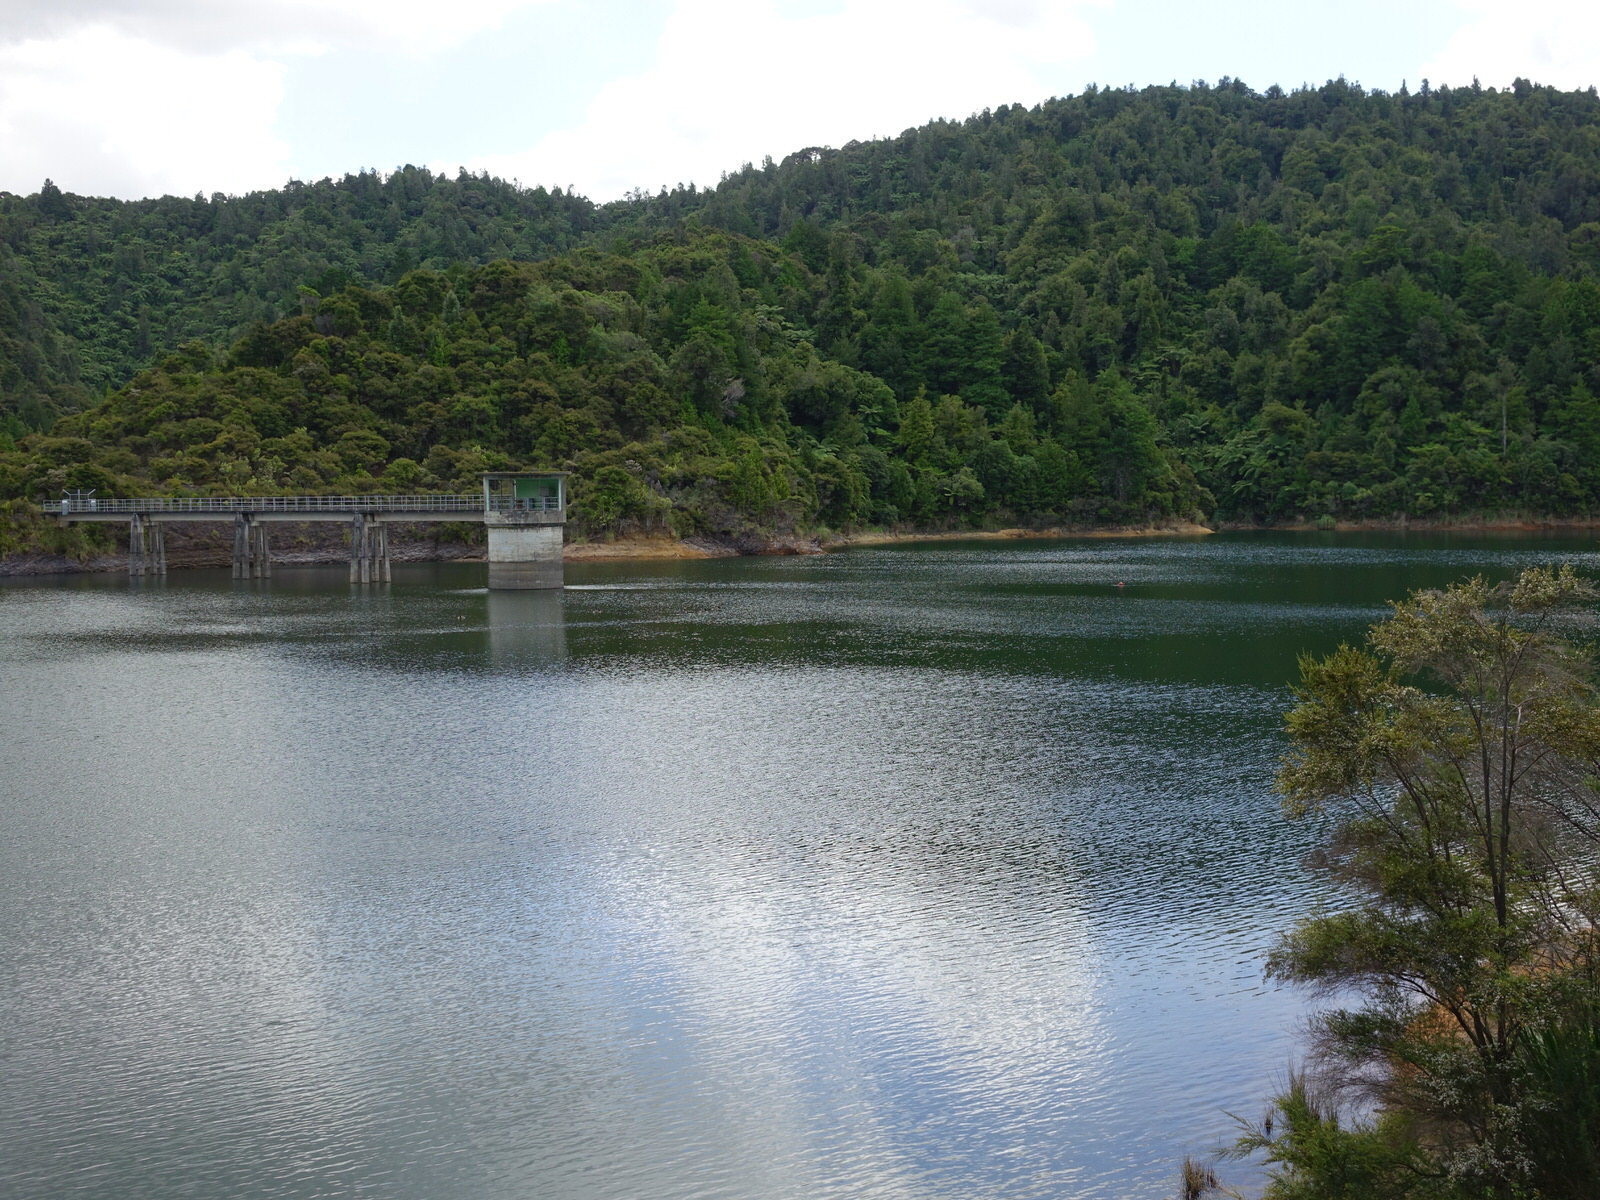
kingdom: Animalia
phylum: Chordata
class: Aves
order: Anseriformes
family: Anatidae
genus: Branta
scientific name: Branta canadensis
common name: Canada goose
